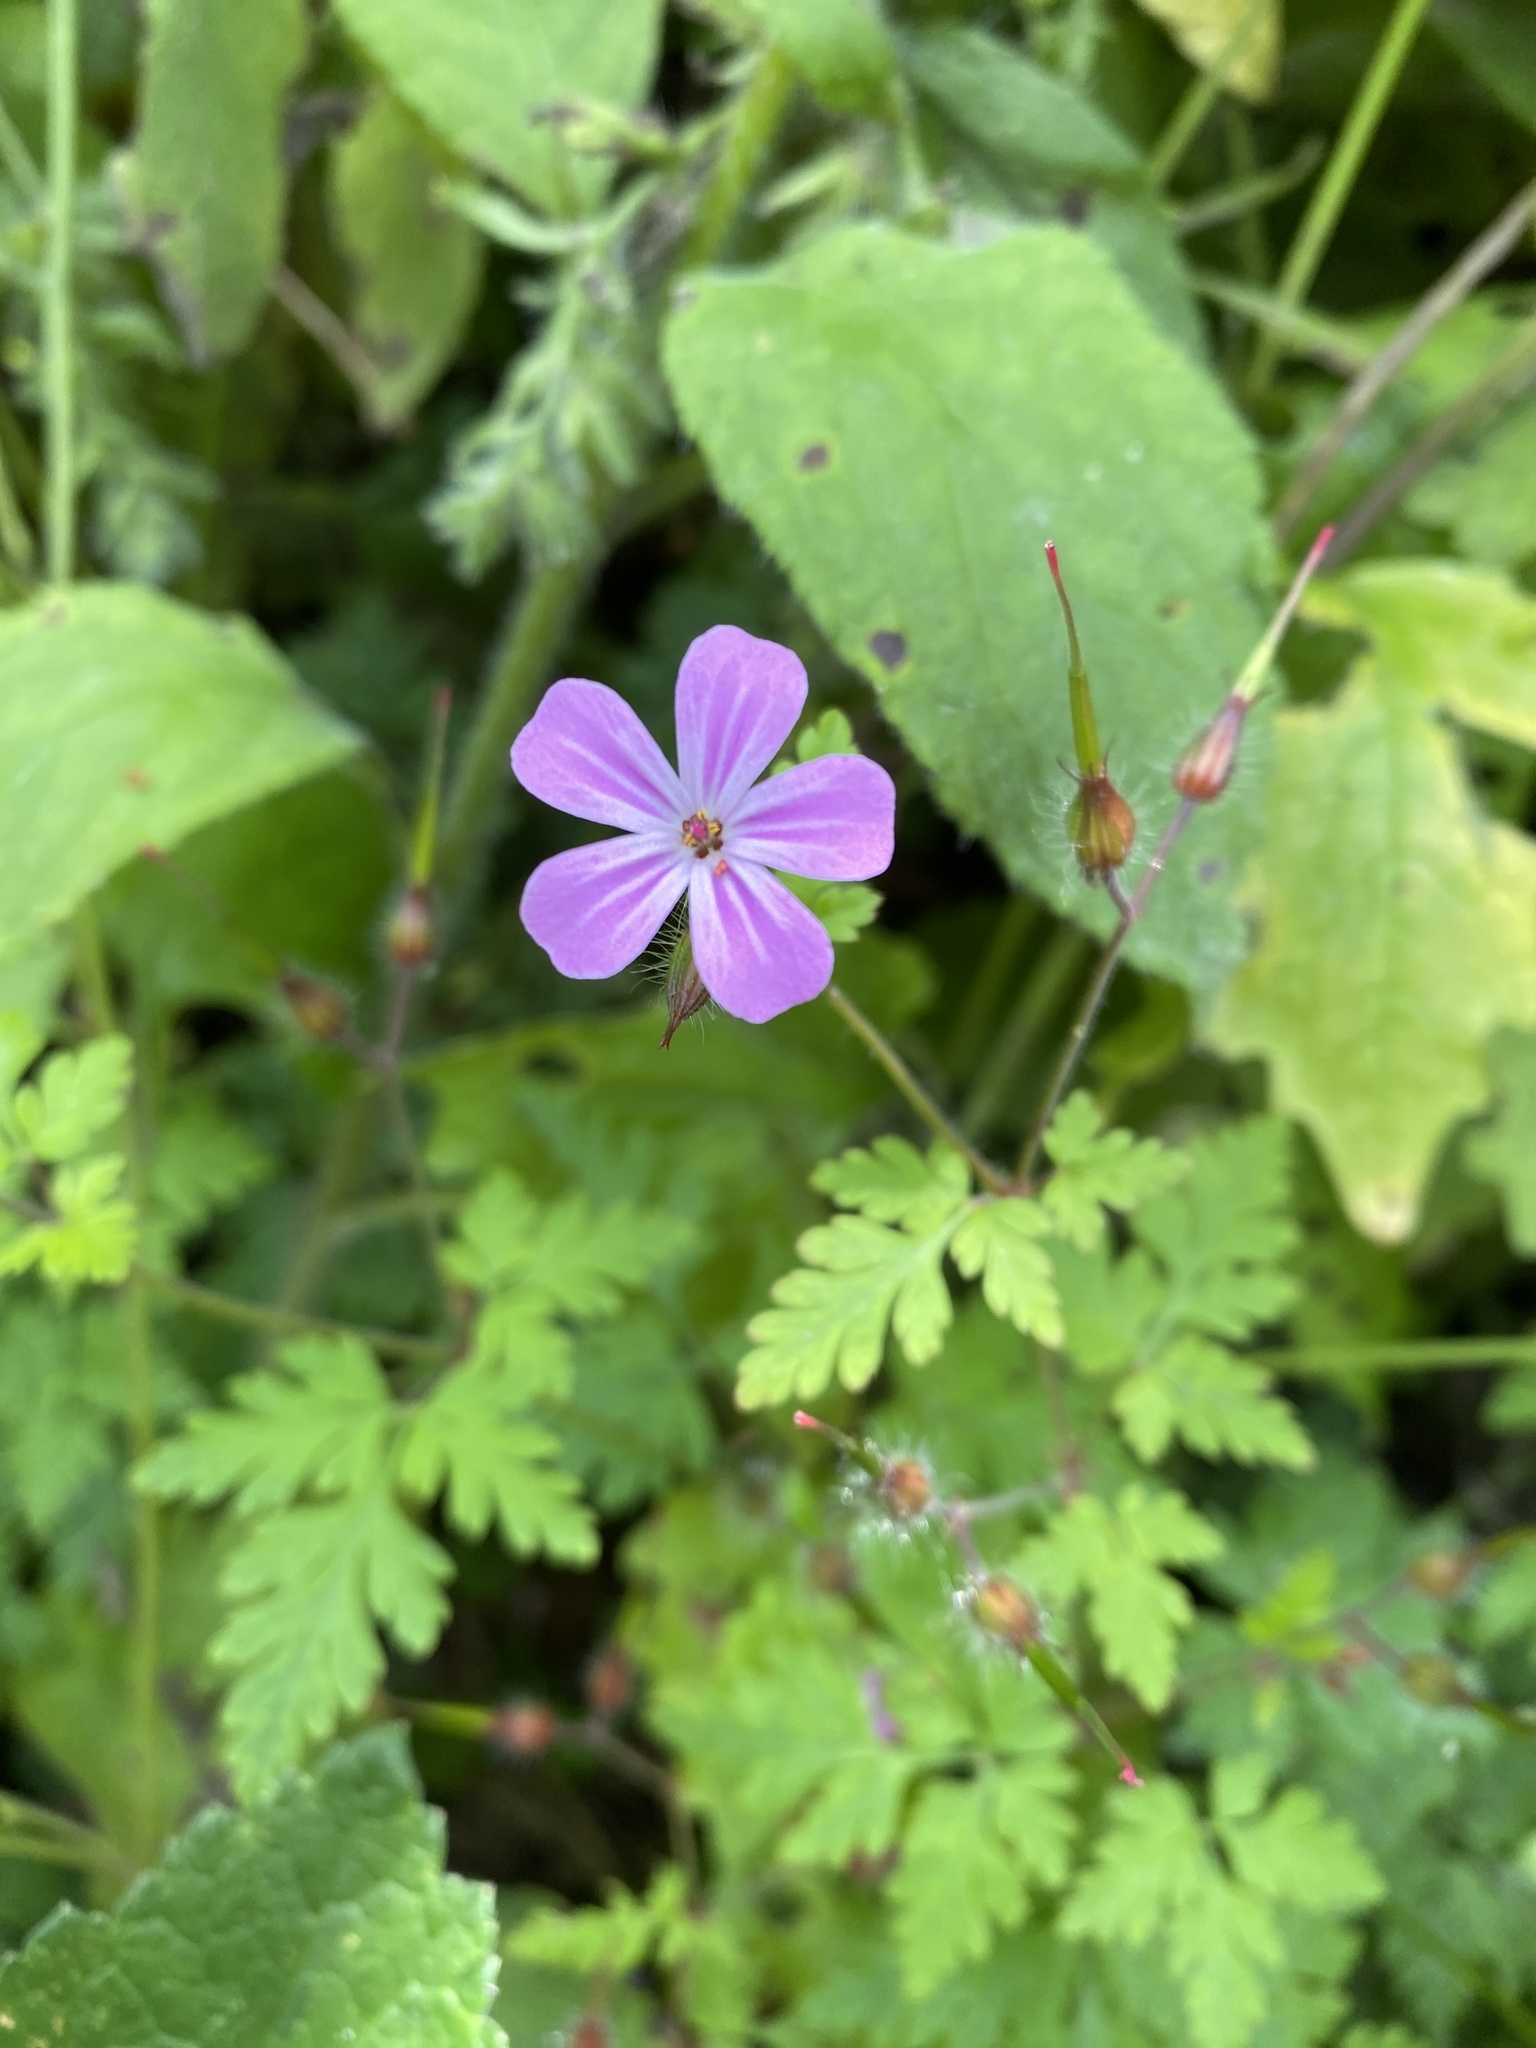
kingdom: Plantae
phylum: Tracheophyta
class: Magnoliopsida
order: Geraniales
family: Geraniaceae
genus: Geranium
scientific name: Geranium robertianum
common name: Herb-robert
